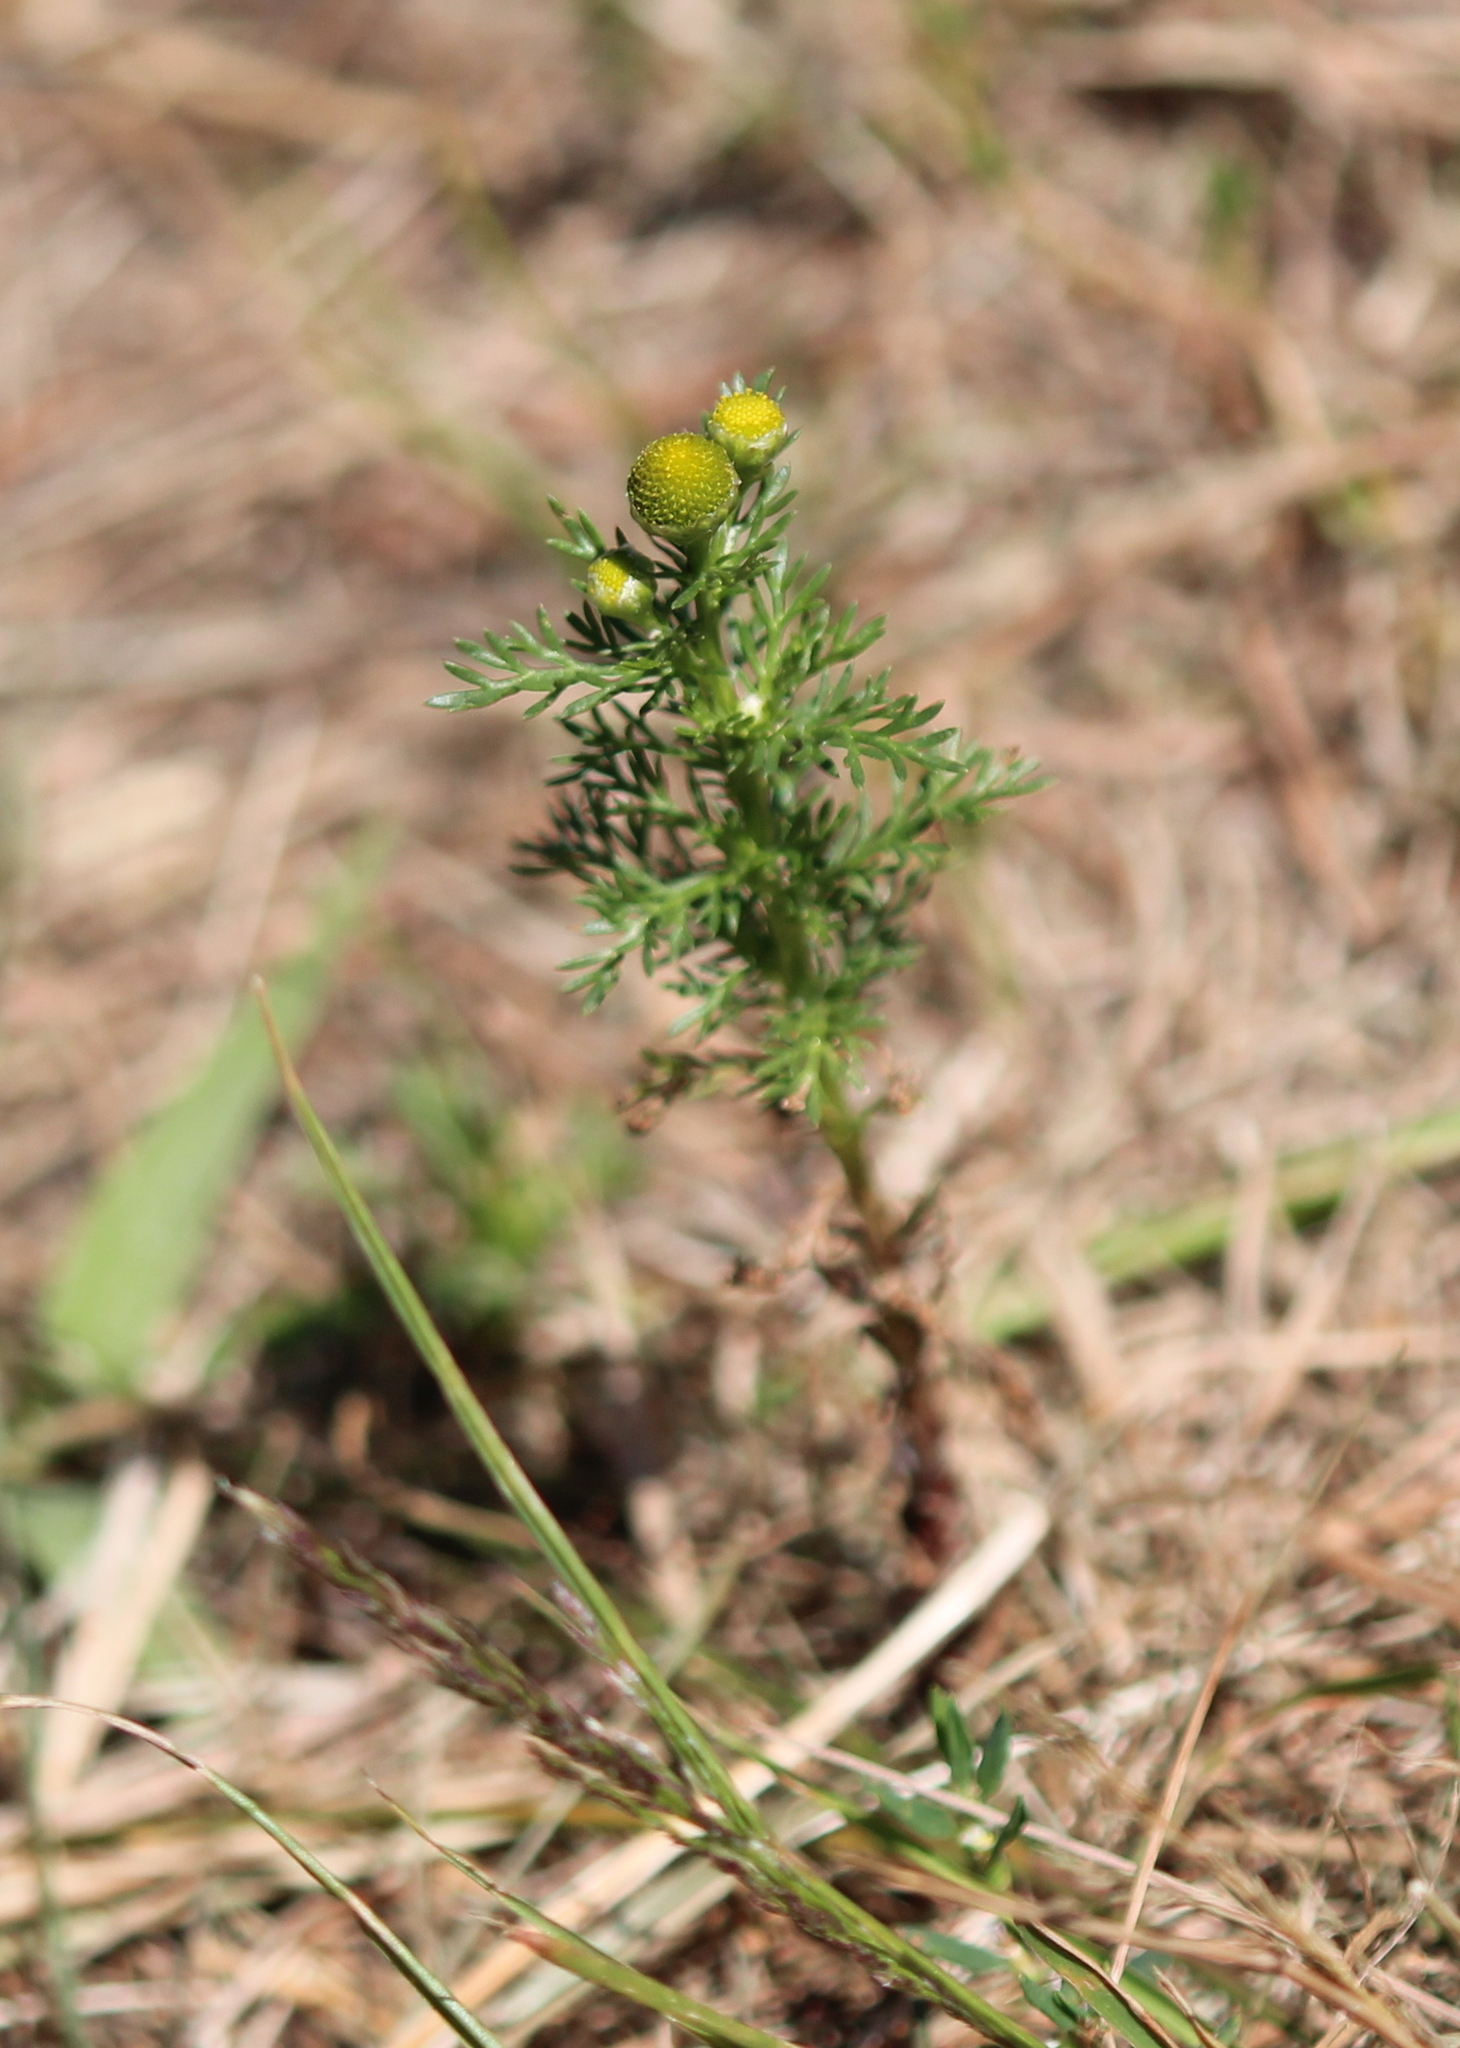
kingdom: Plantae
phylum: Tracheophyta
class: Magnoliopsida
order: Asterales
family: Asteraceae
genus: Matricaria
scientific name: Matricaria discoidea
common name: Disc mayweed
